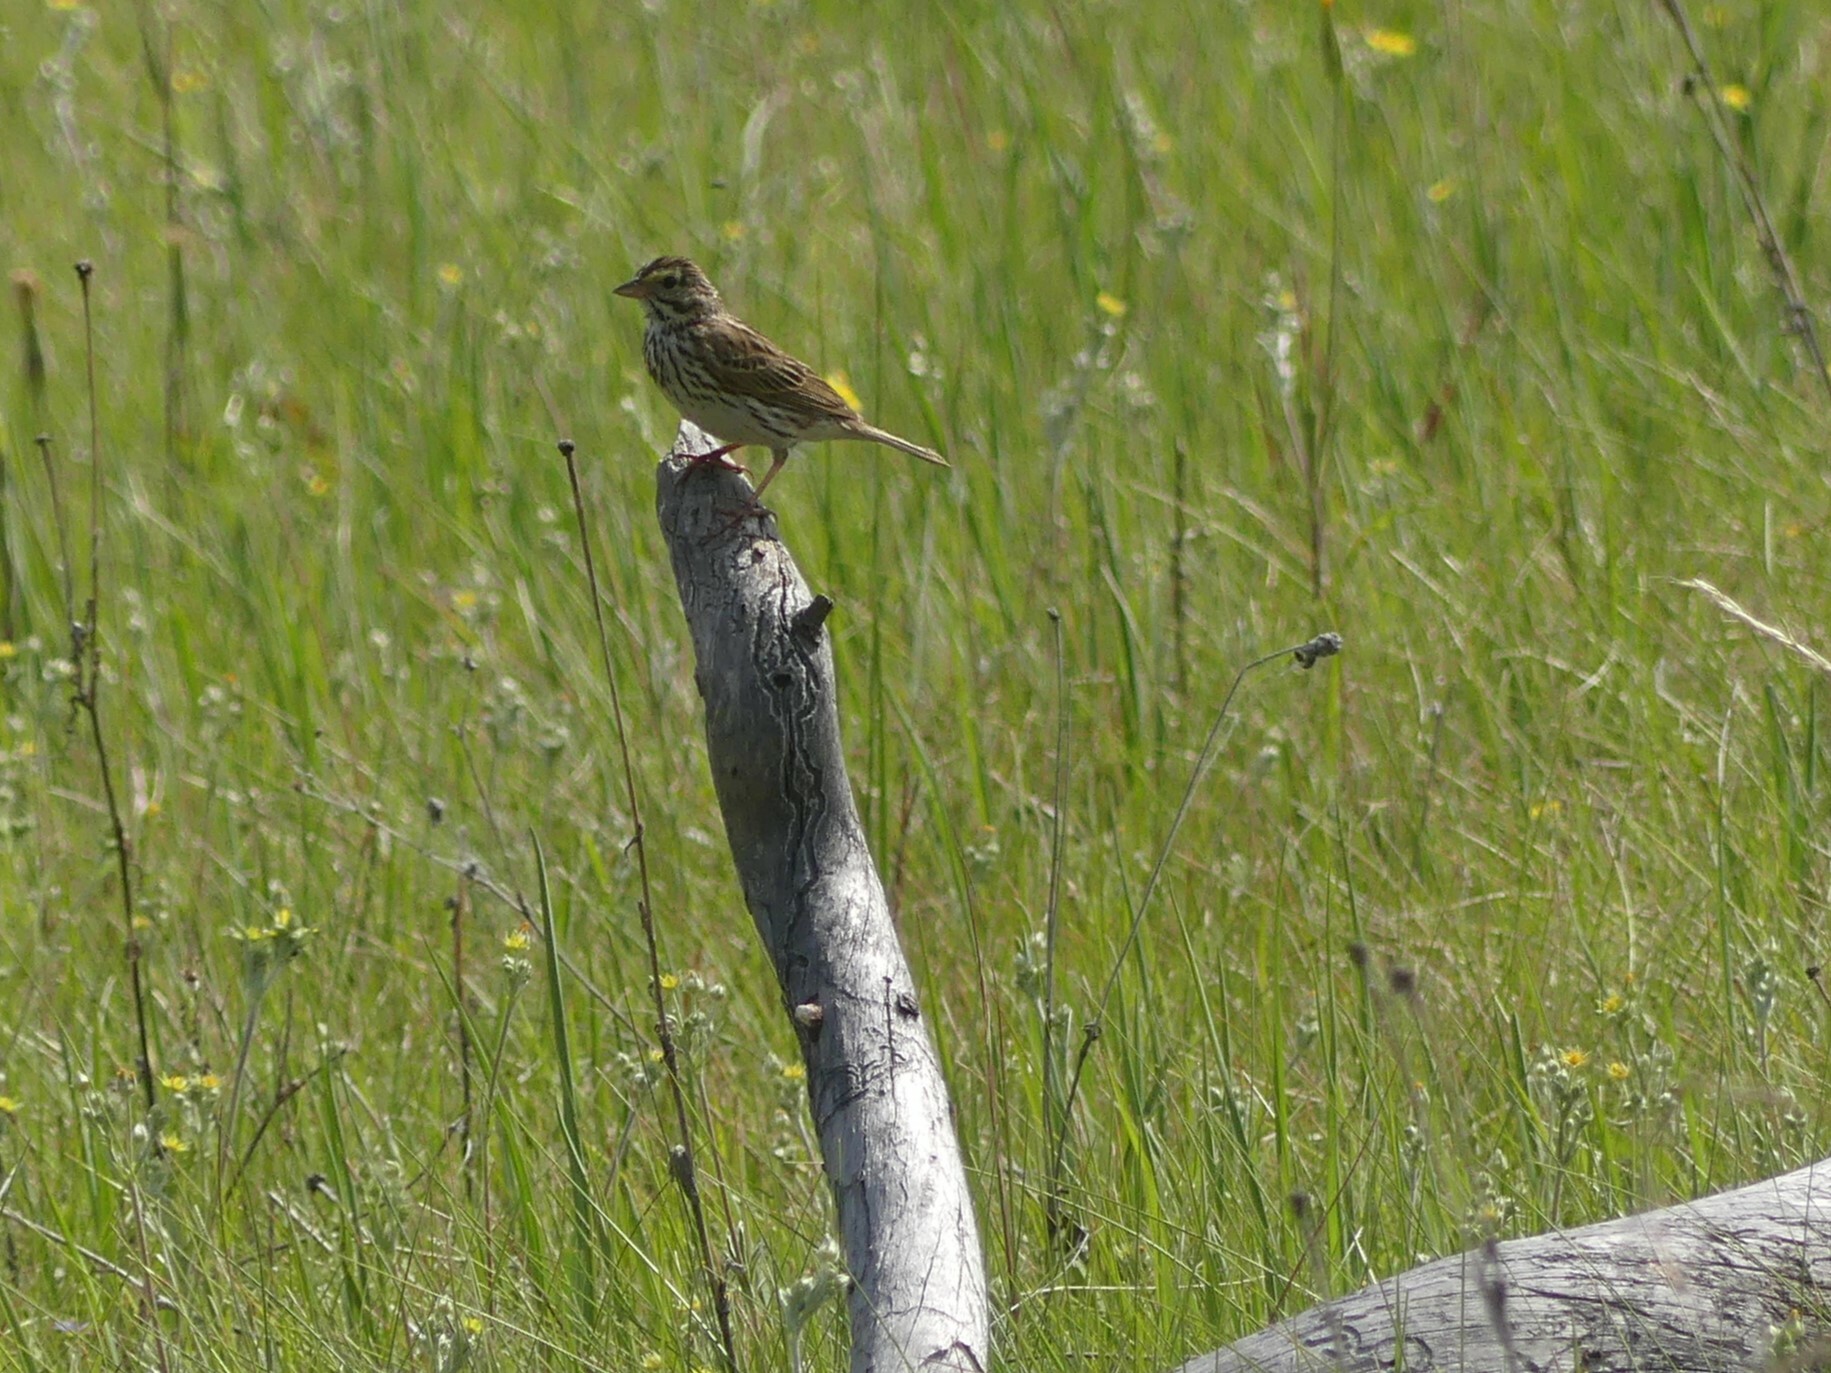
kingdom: Animalia
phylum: Chordata
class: Aves
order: Passeriformes
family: Passerellidae
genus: Passerculus
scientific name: Passerculus sandwichensis
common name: Savannah sparrow
